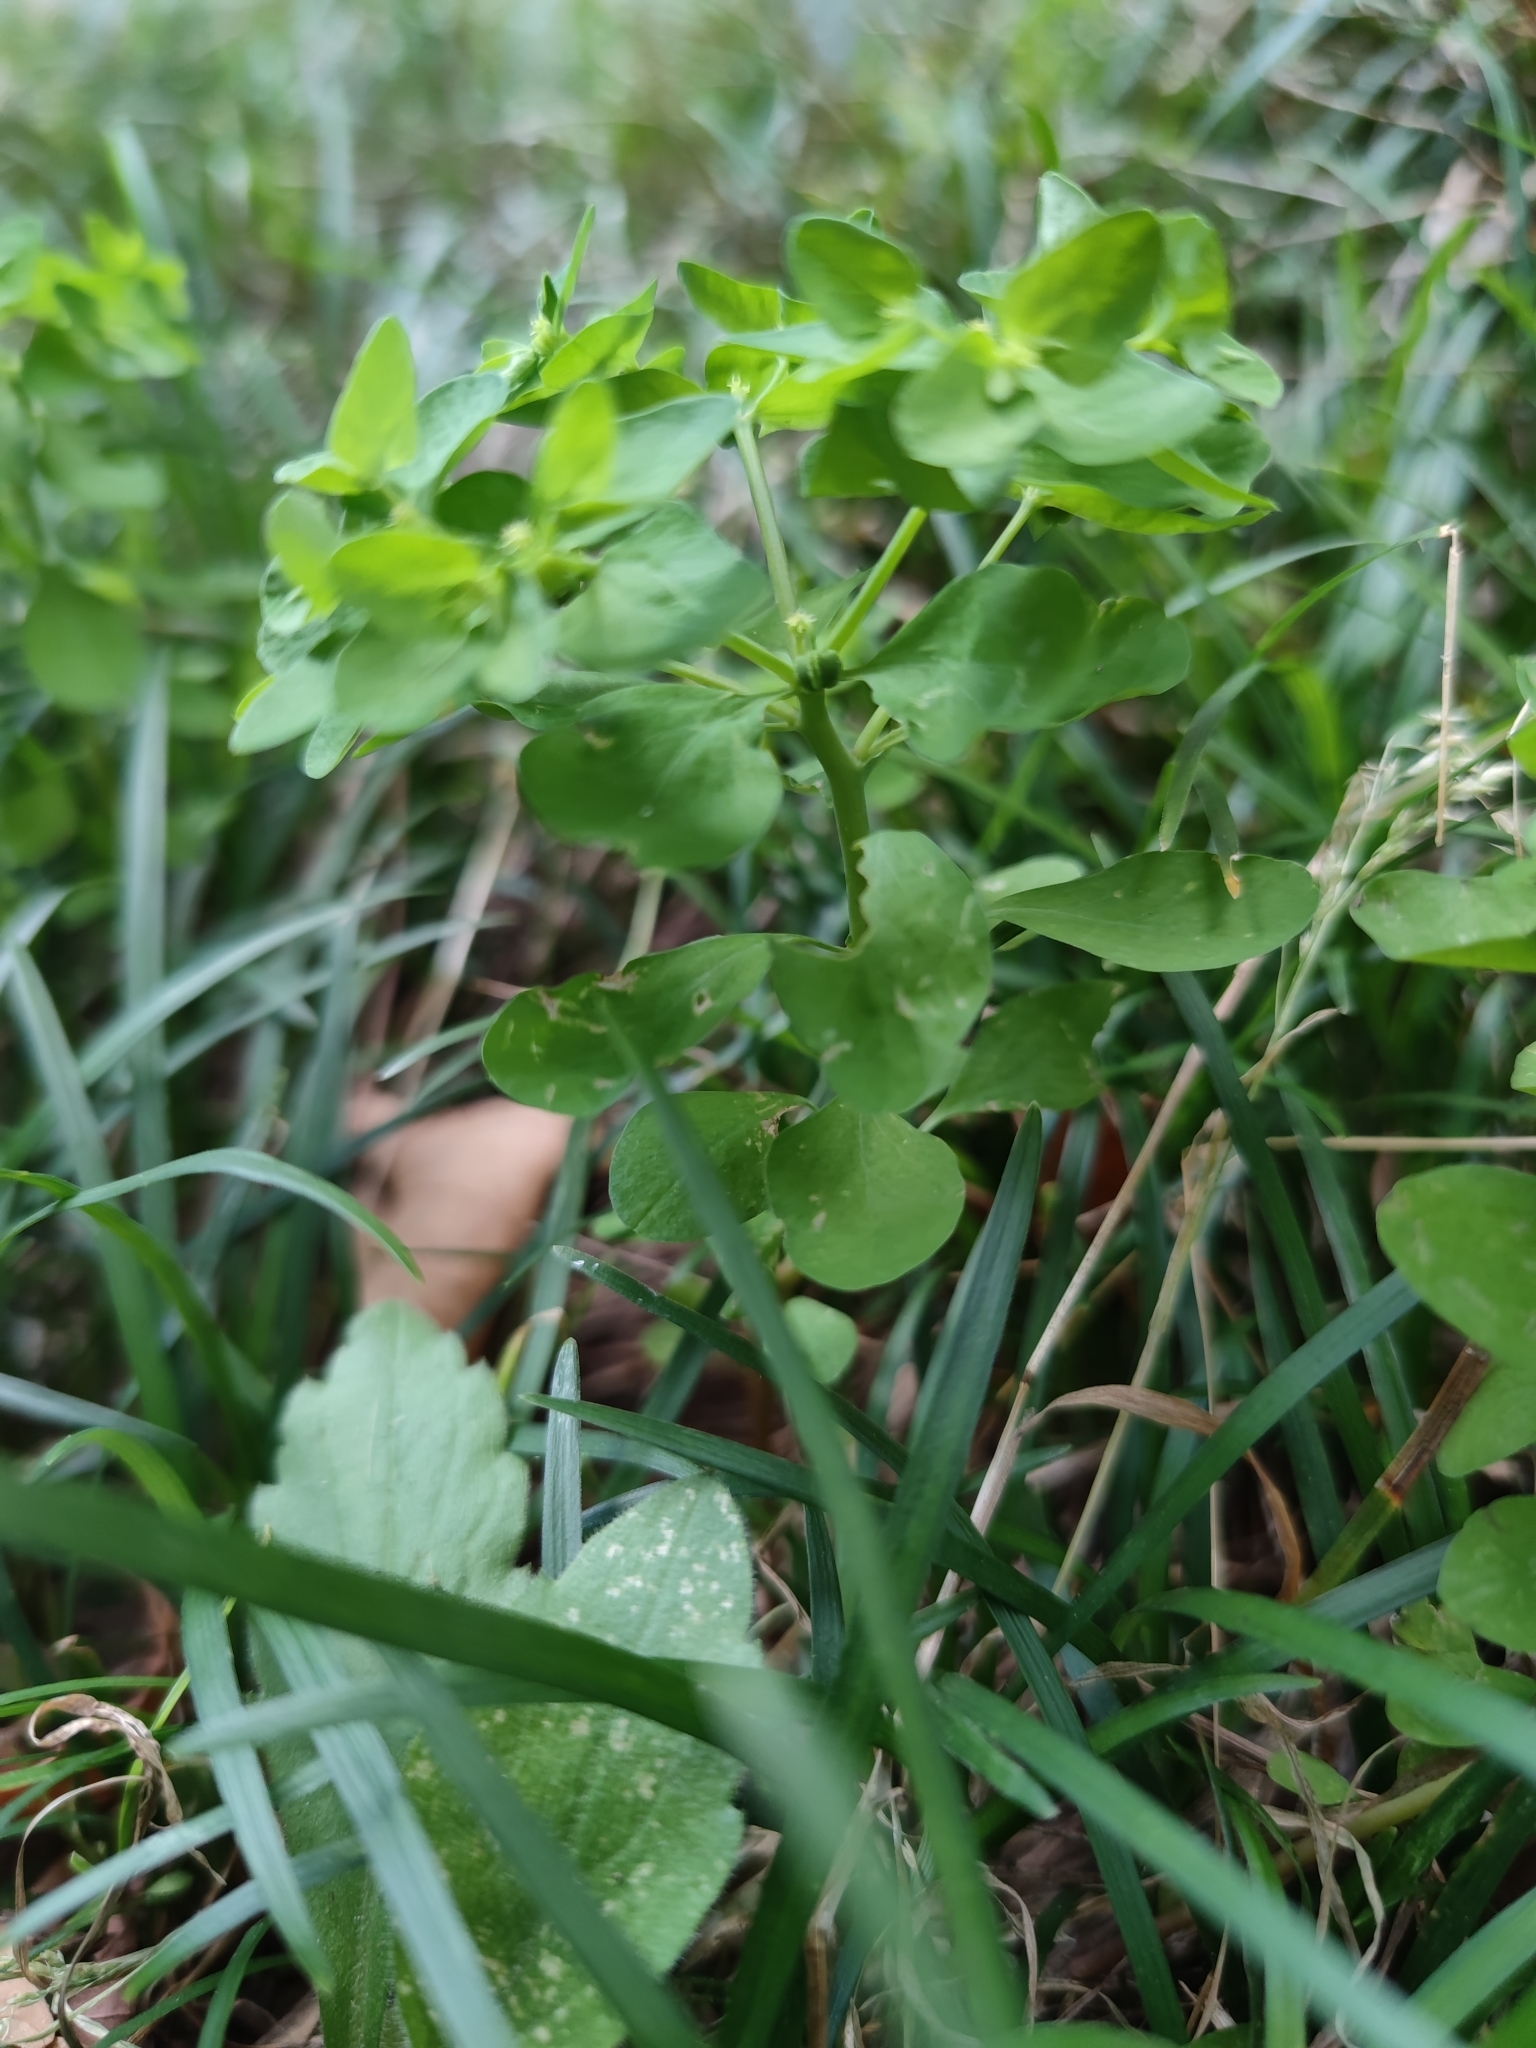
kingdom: Plantae
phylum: Tracheophyta
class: Magnoliopsida
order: Malpighiales
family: Euphorbiaceae
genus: Euphorbia
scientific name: Euphorbia peplus
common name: Petty spurge
